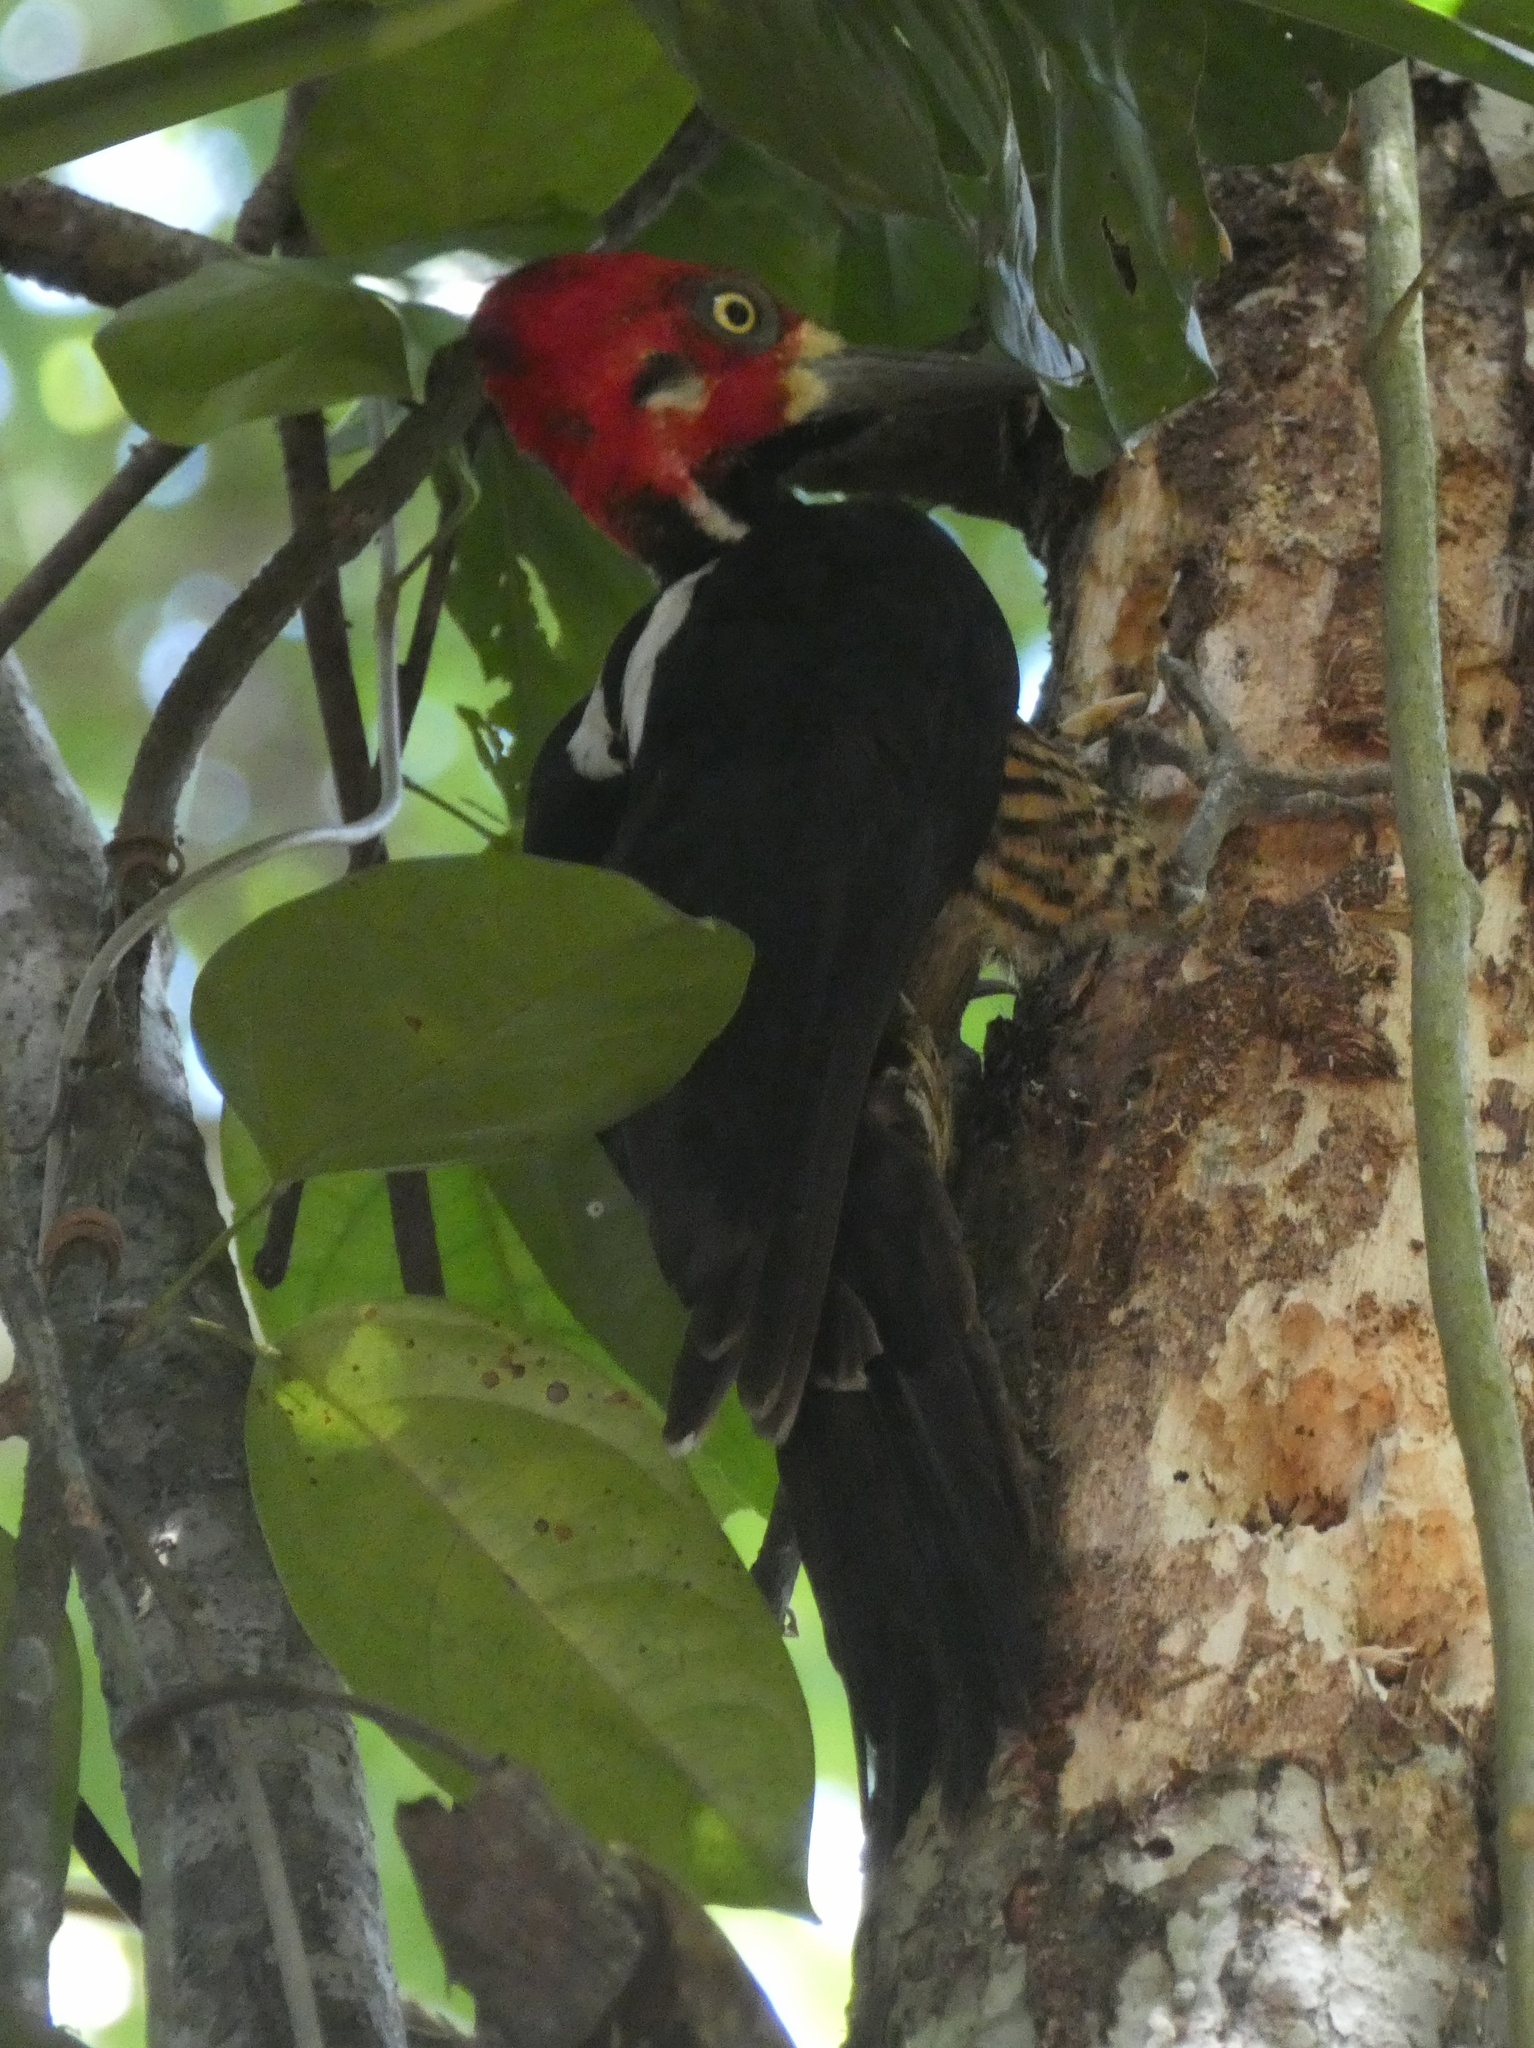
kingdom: Animalia
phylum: Chordata
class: Aves
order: Piciformes
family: Picidae
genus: Campephilus
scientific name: Campephilus melanoleucos
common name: Crimson-crested woodpecker
